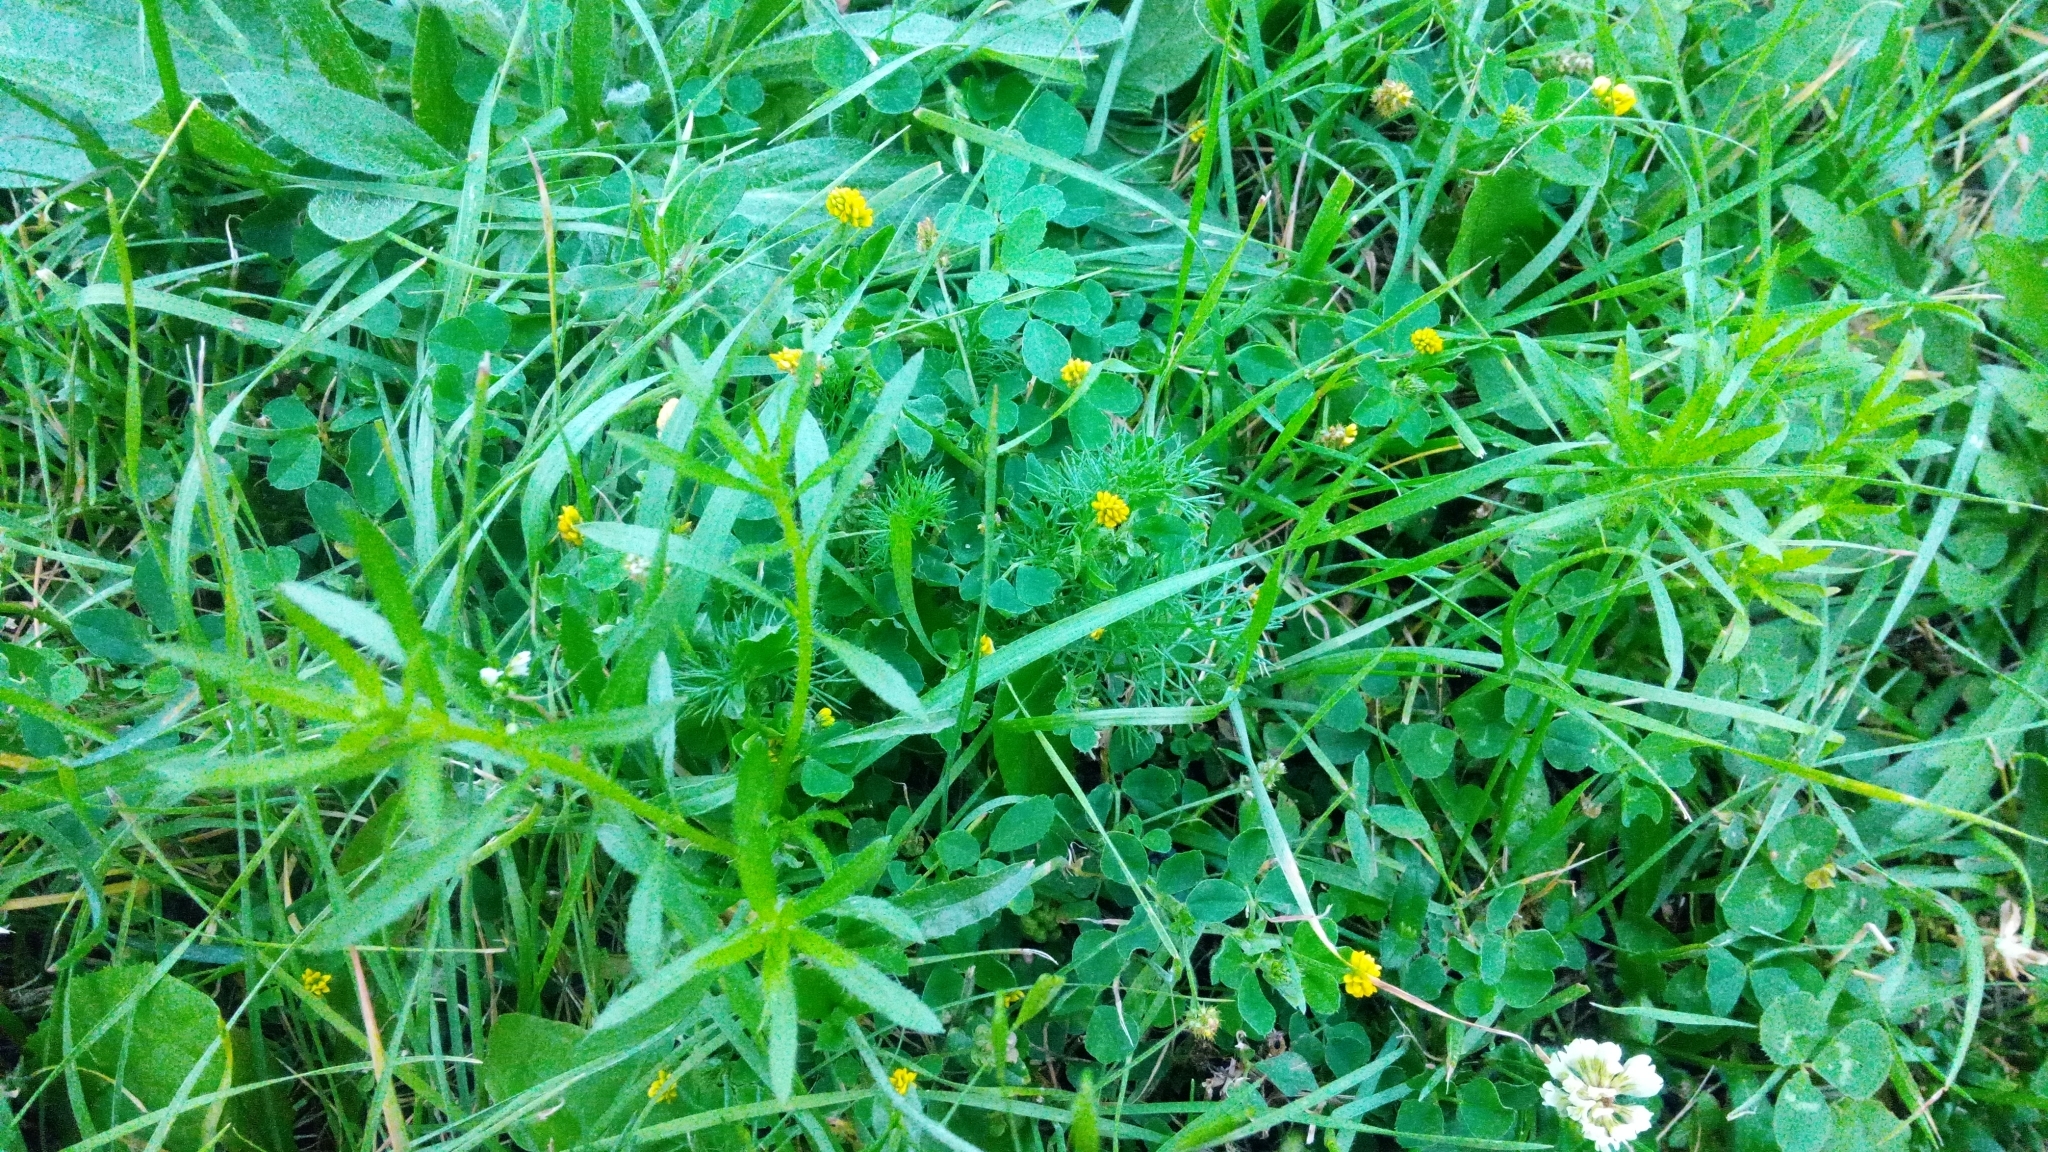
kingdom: Plantae
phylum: Tracheophyta
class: Magnoliopsida
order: Fabales
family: Fabaceae
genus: Medicago
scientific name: Medicago lupulina
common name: Black medick
